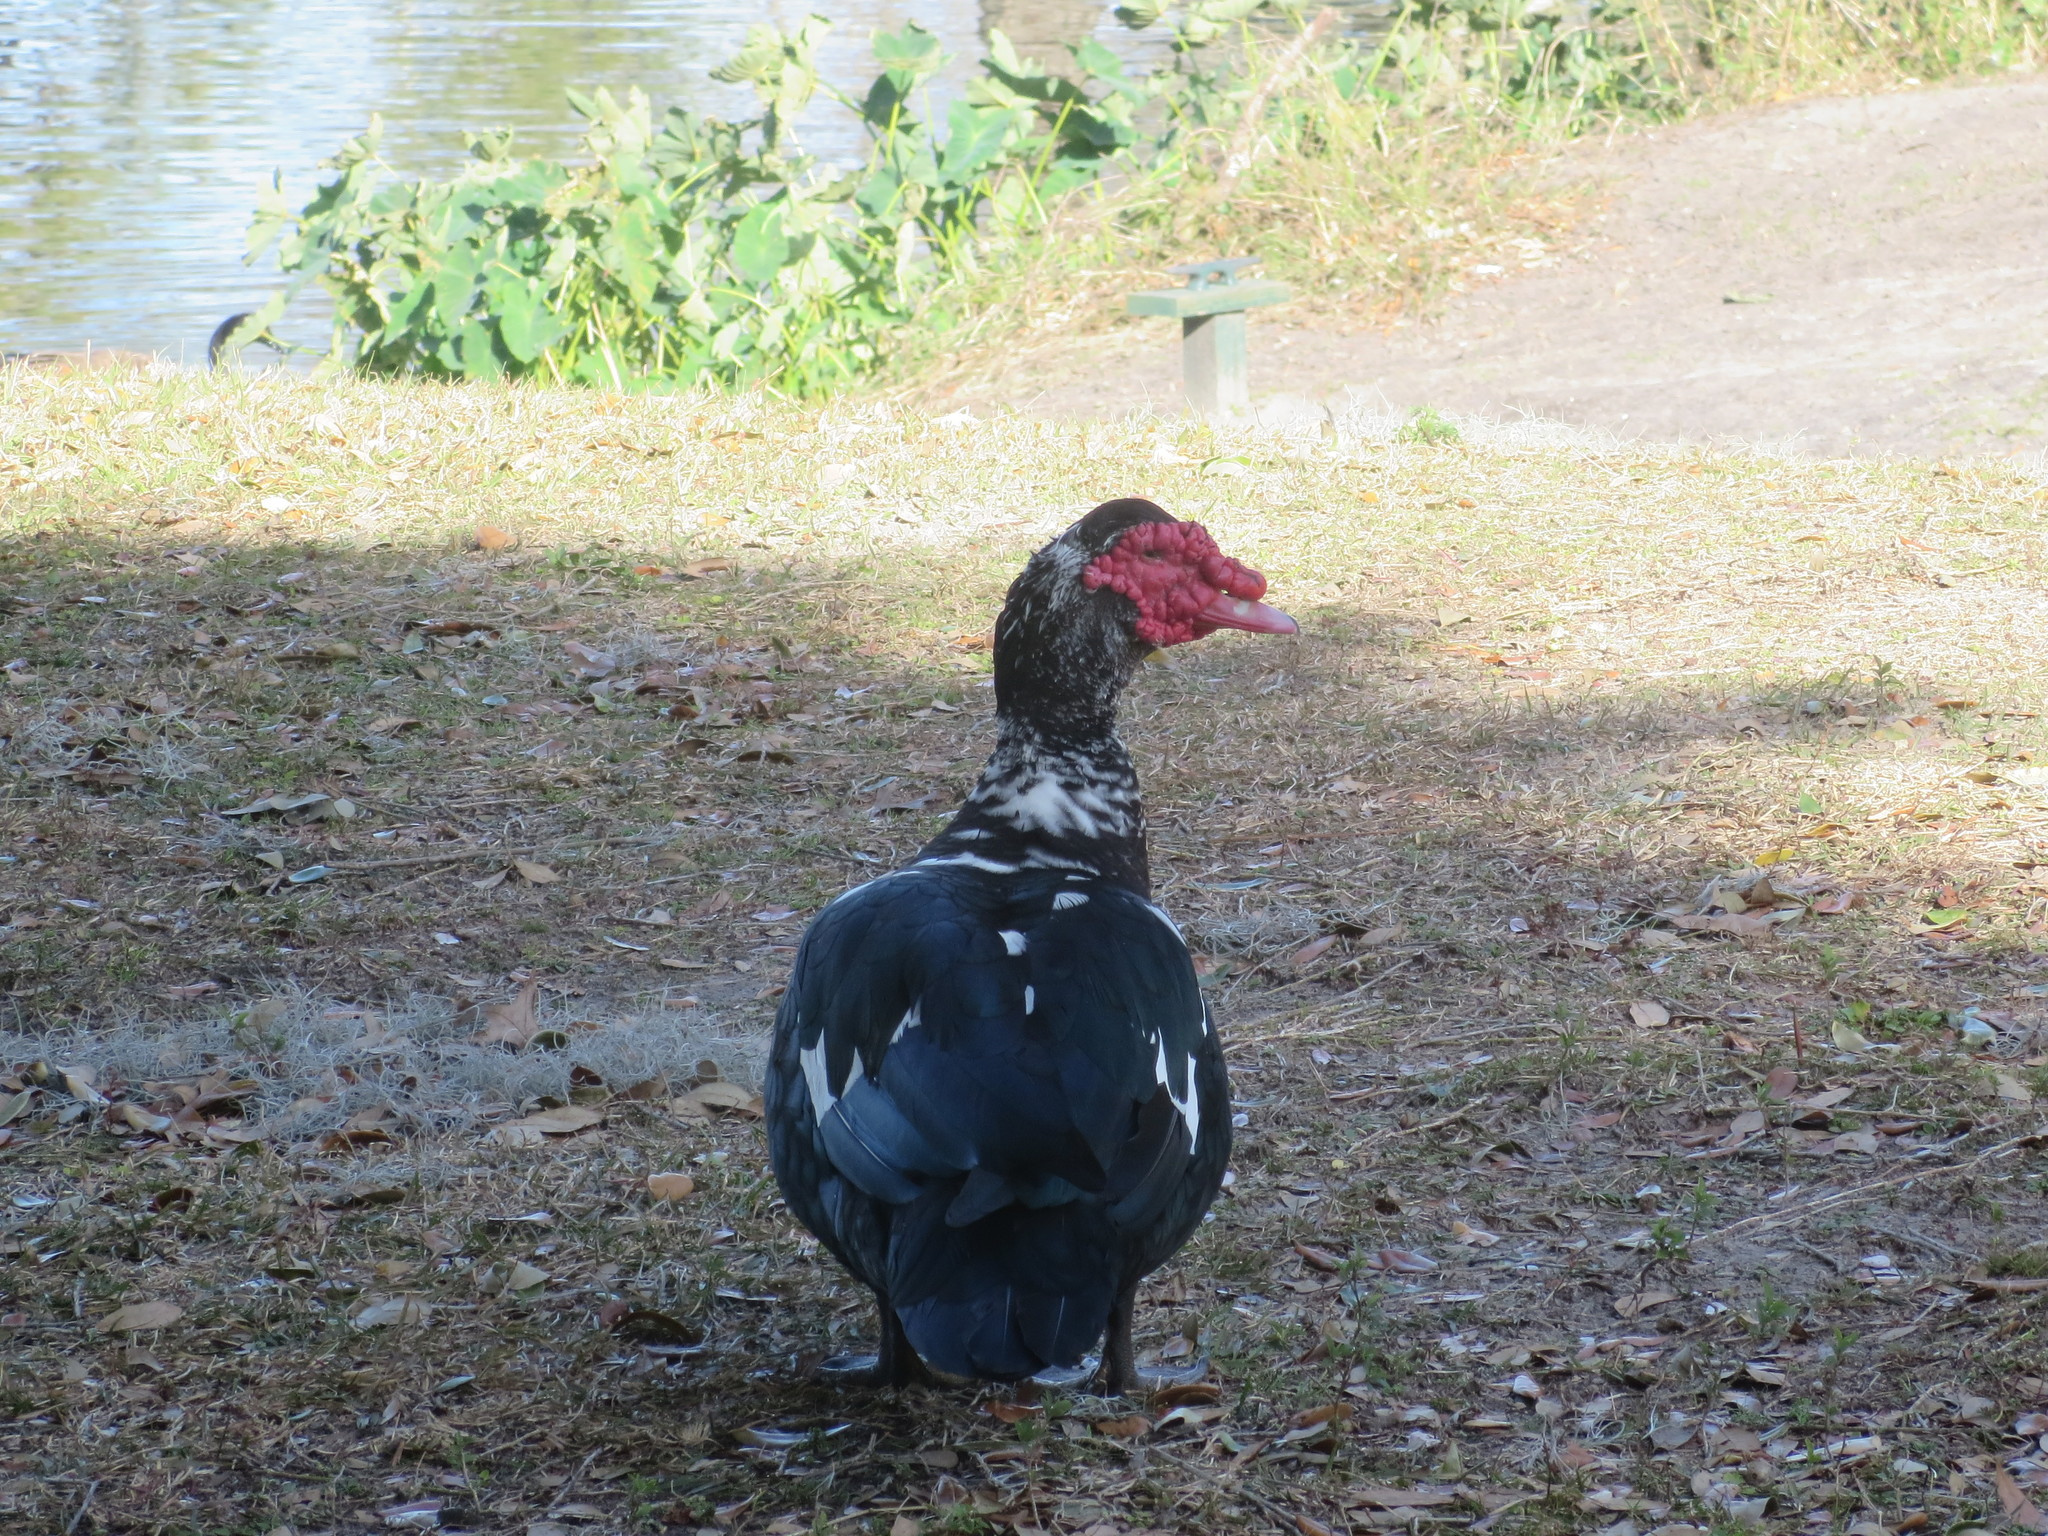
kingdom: Animalia
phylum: Chordata
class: Aves
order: Anseriformes
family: Anatidae
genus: Cairina
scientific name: Cairina moschata
